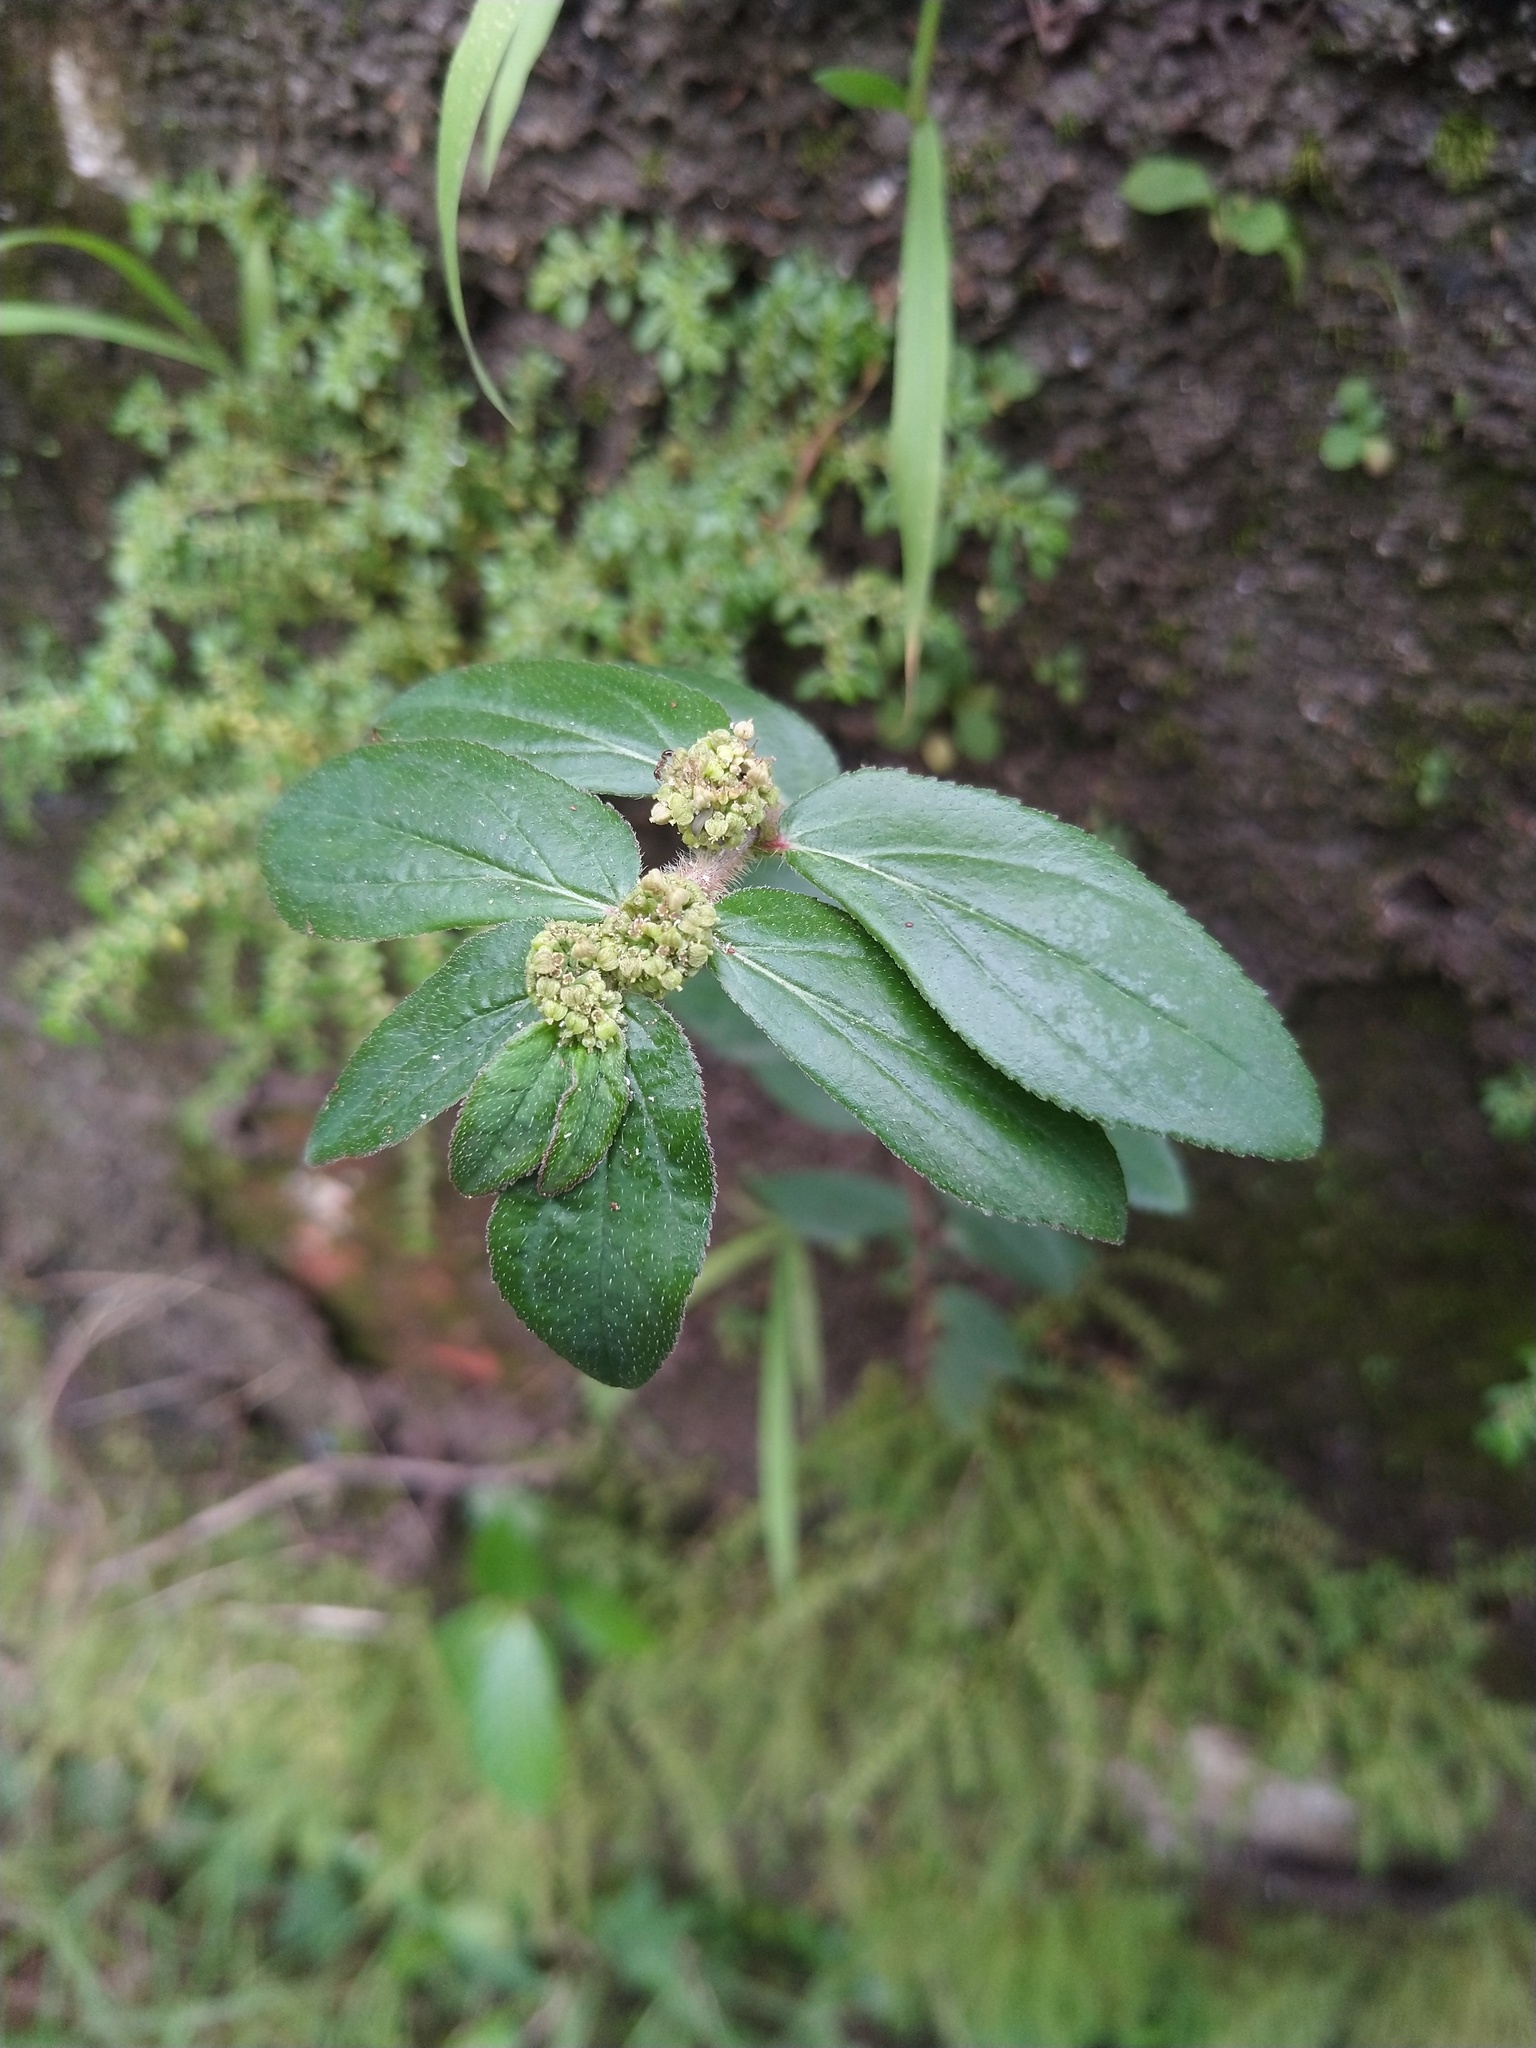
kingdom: Plantae
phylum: Tracheophyta
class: Magnoliopsida
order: Malpighiales
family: Euphorbiaceae
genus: Euphorbia
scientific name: Euphorbia hirta
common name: Pillpod sandmat
